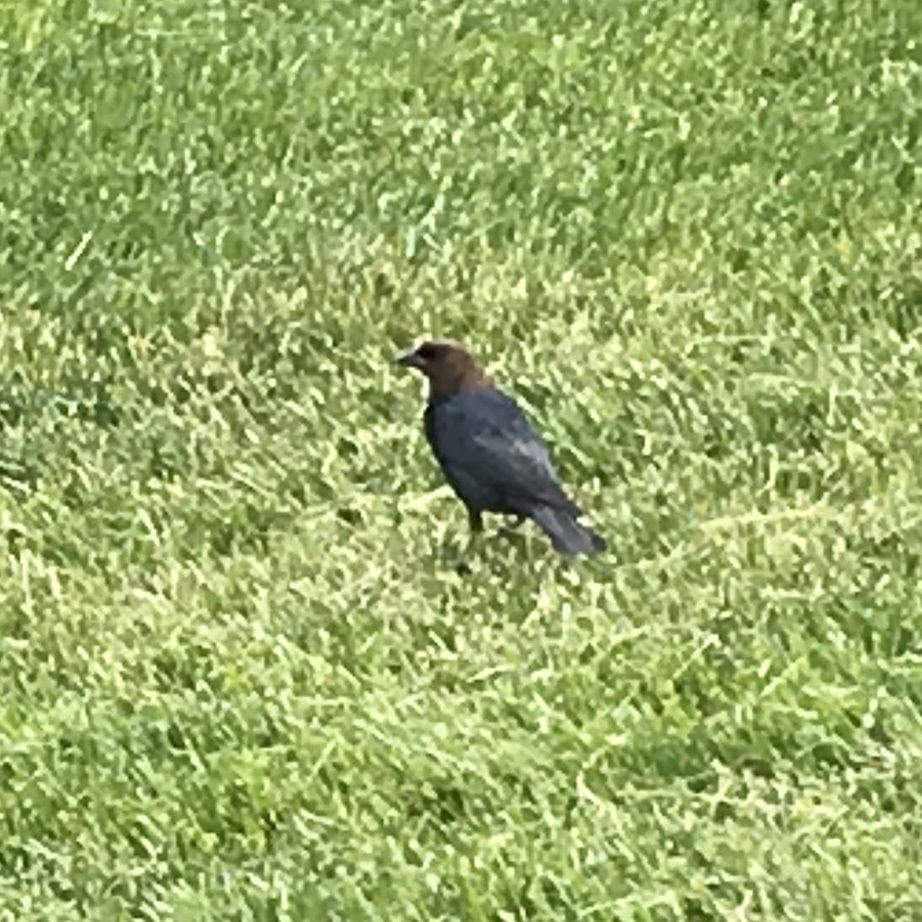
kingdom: Animalia
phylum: Chordata
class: Aves
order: Passeriformes
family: Icteridae
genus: Molothrus
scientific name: Molothrus ater
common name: Brown-headed cowbird
